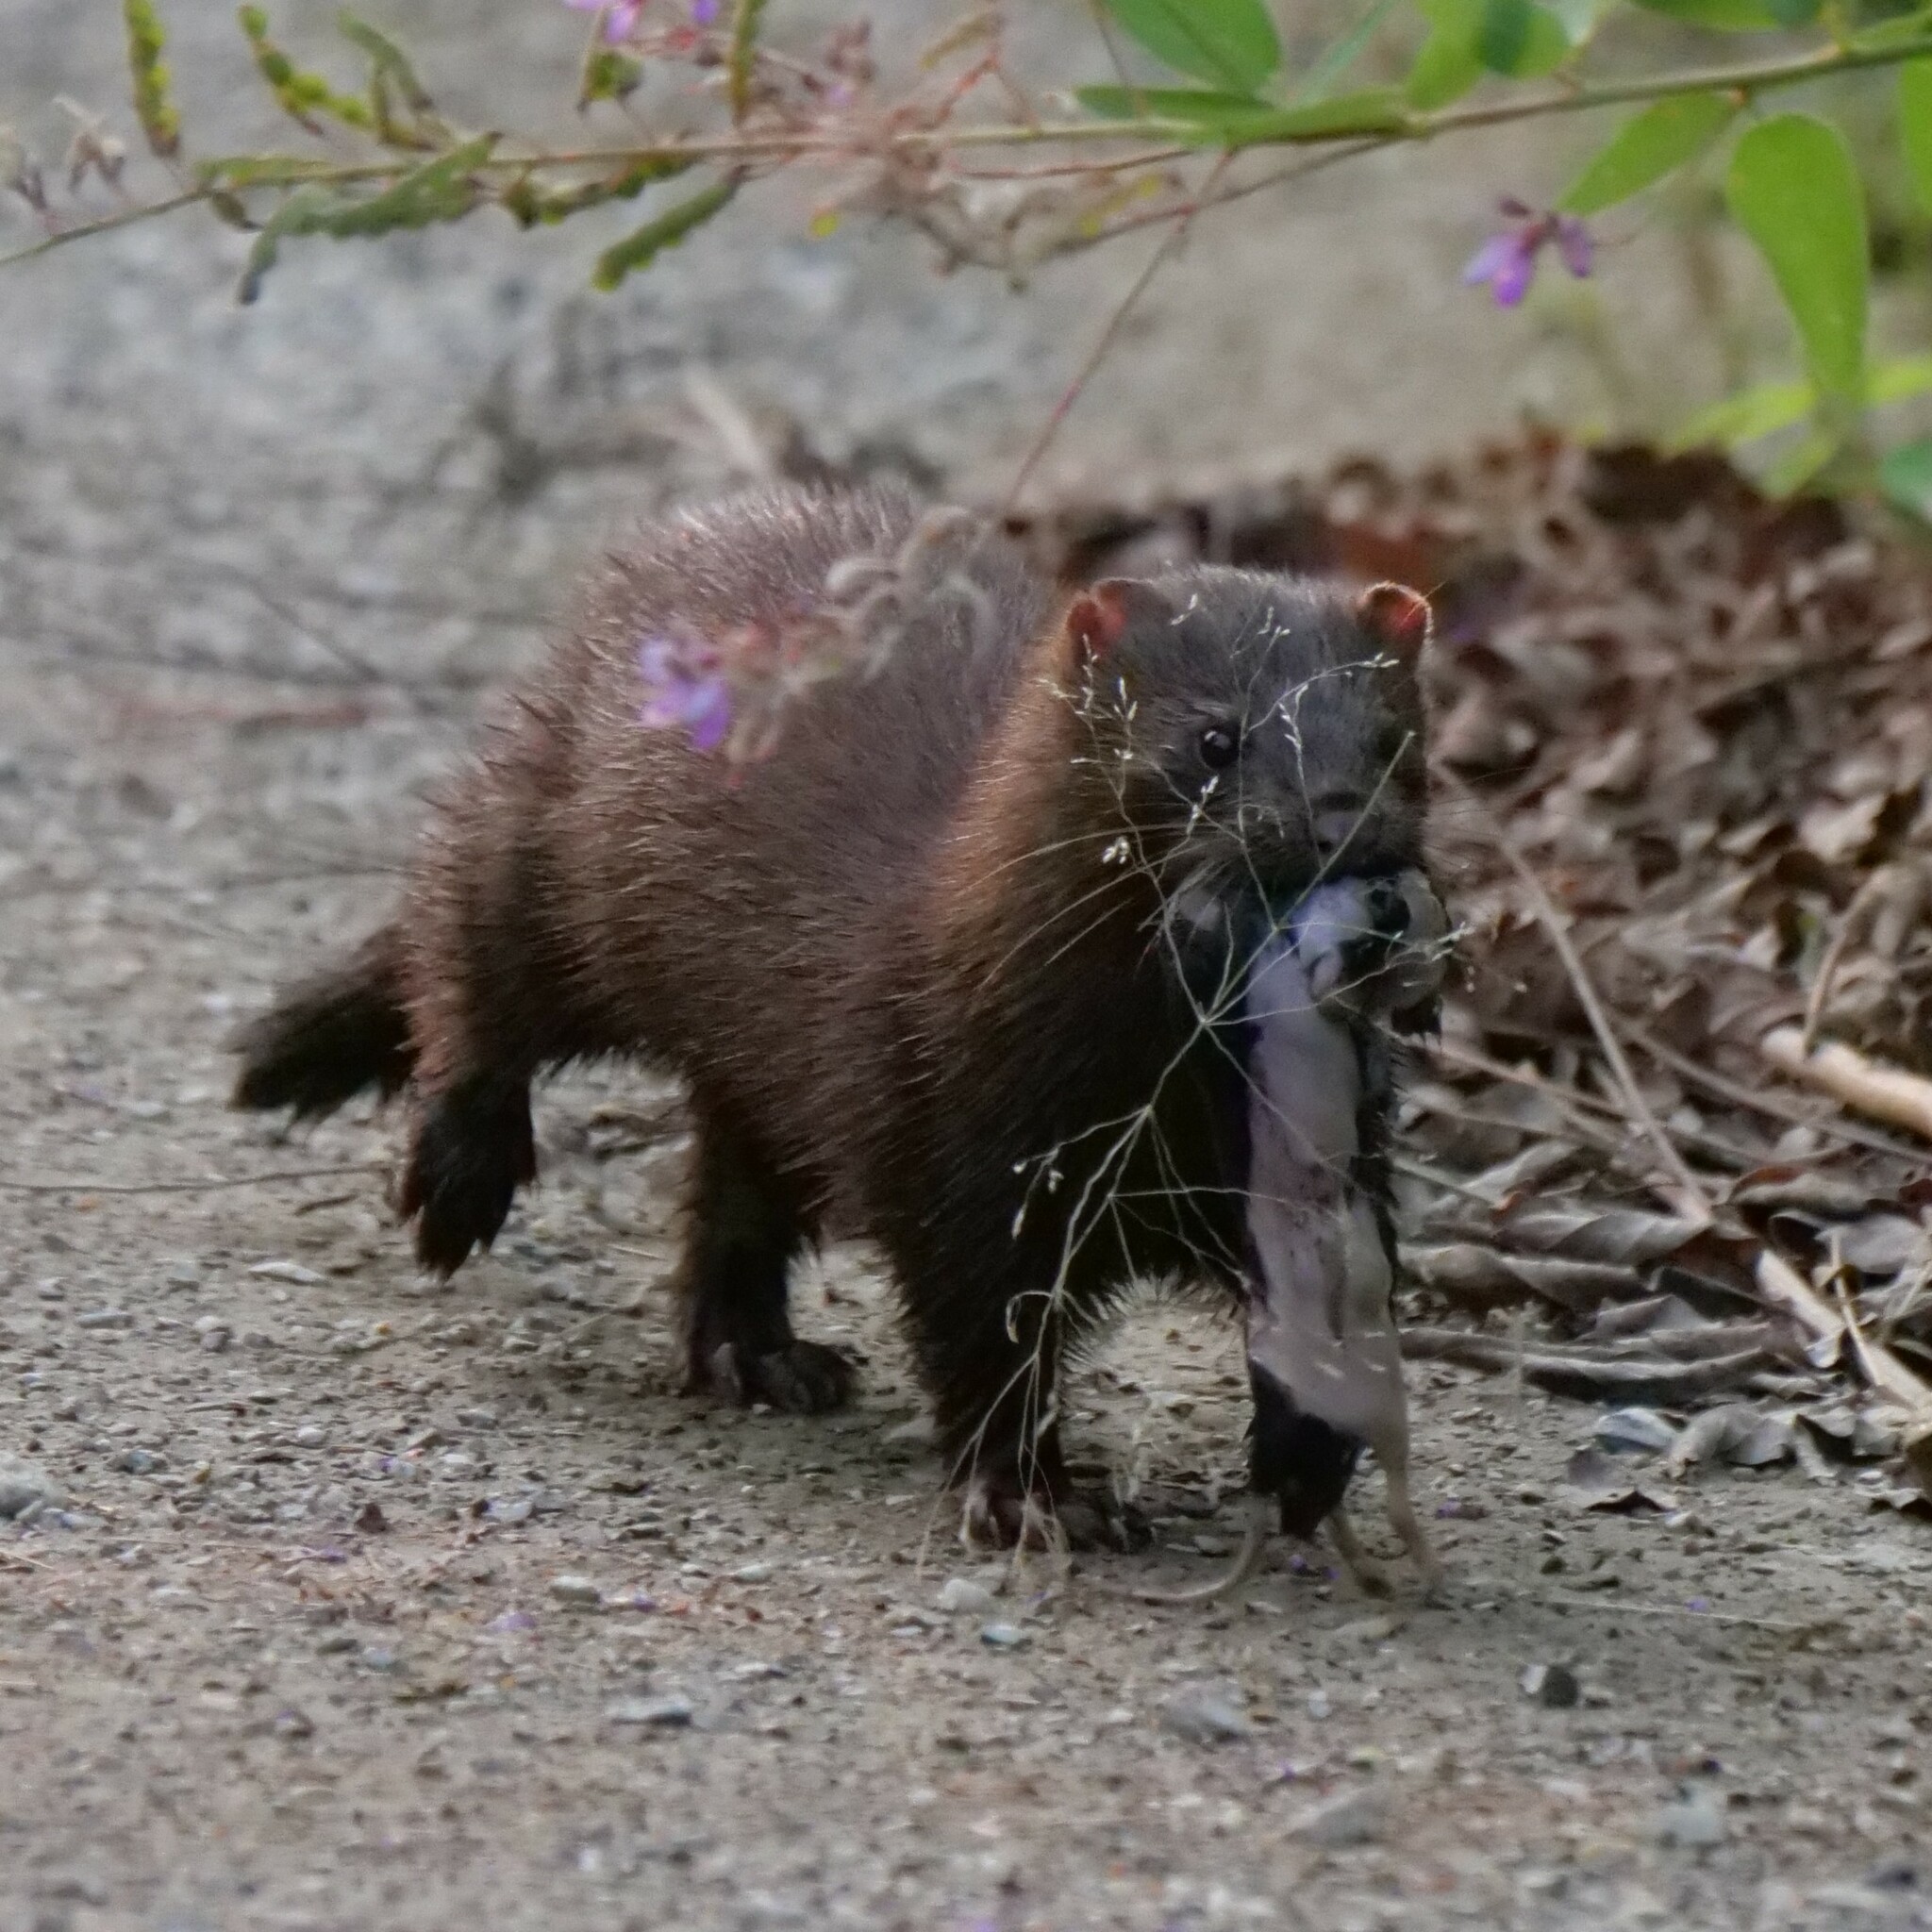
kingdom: Animalia
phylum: Chordata
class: Mammalia
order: Carnivora
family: Mustelidae
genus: Mustela
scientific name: Mustela
